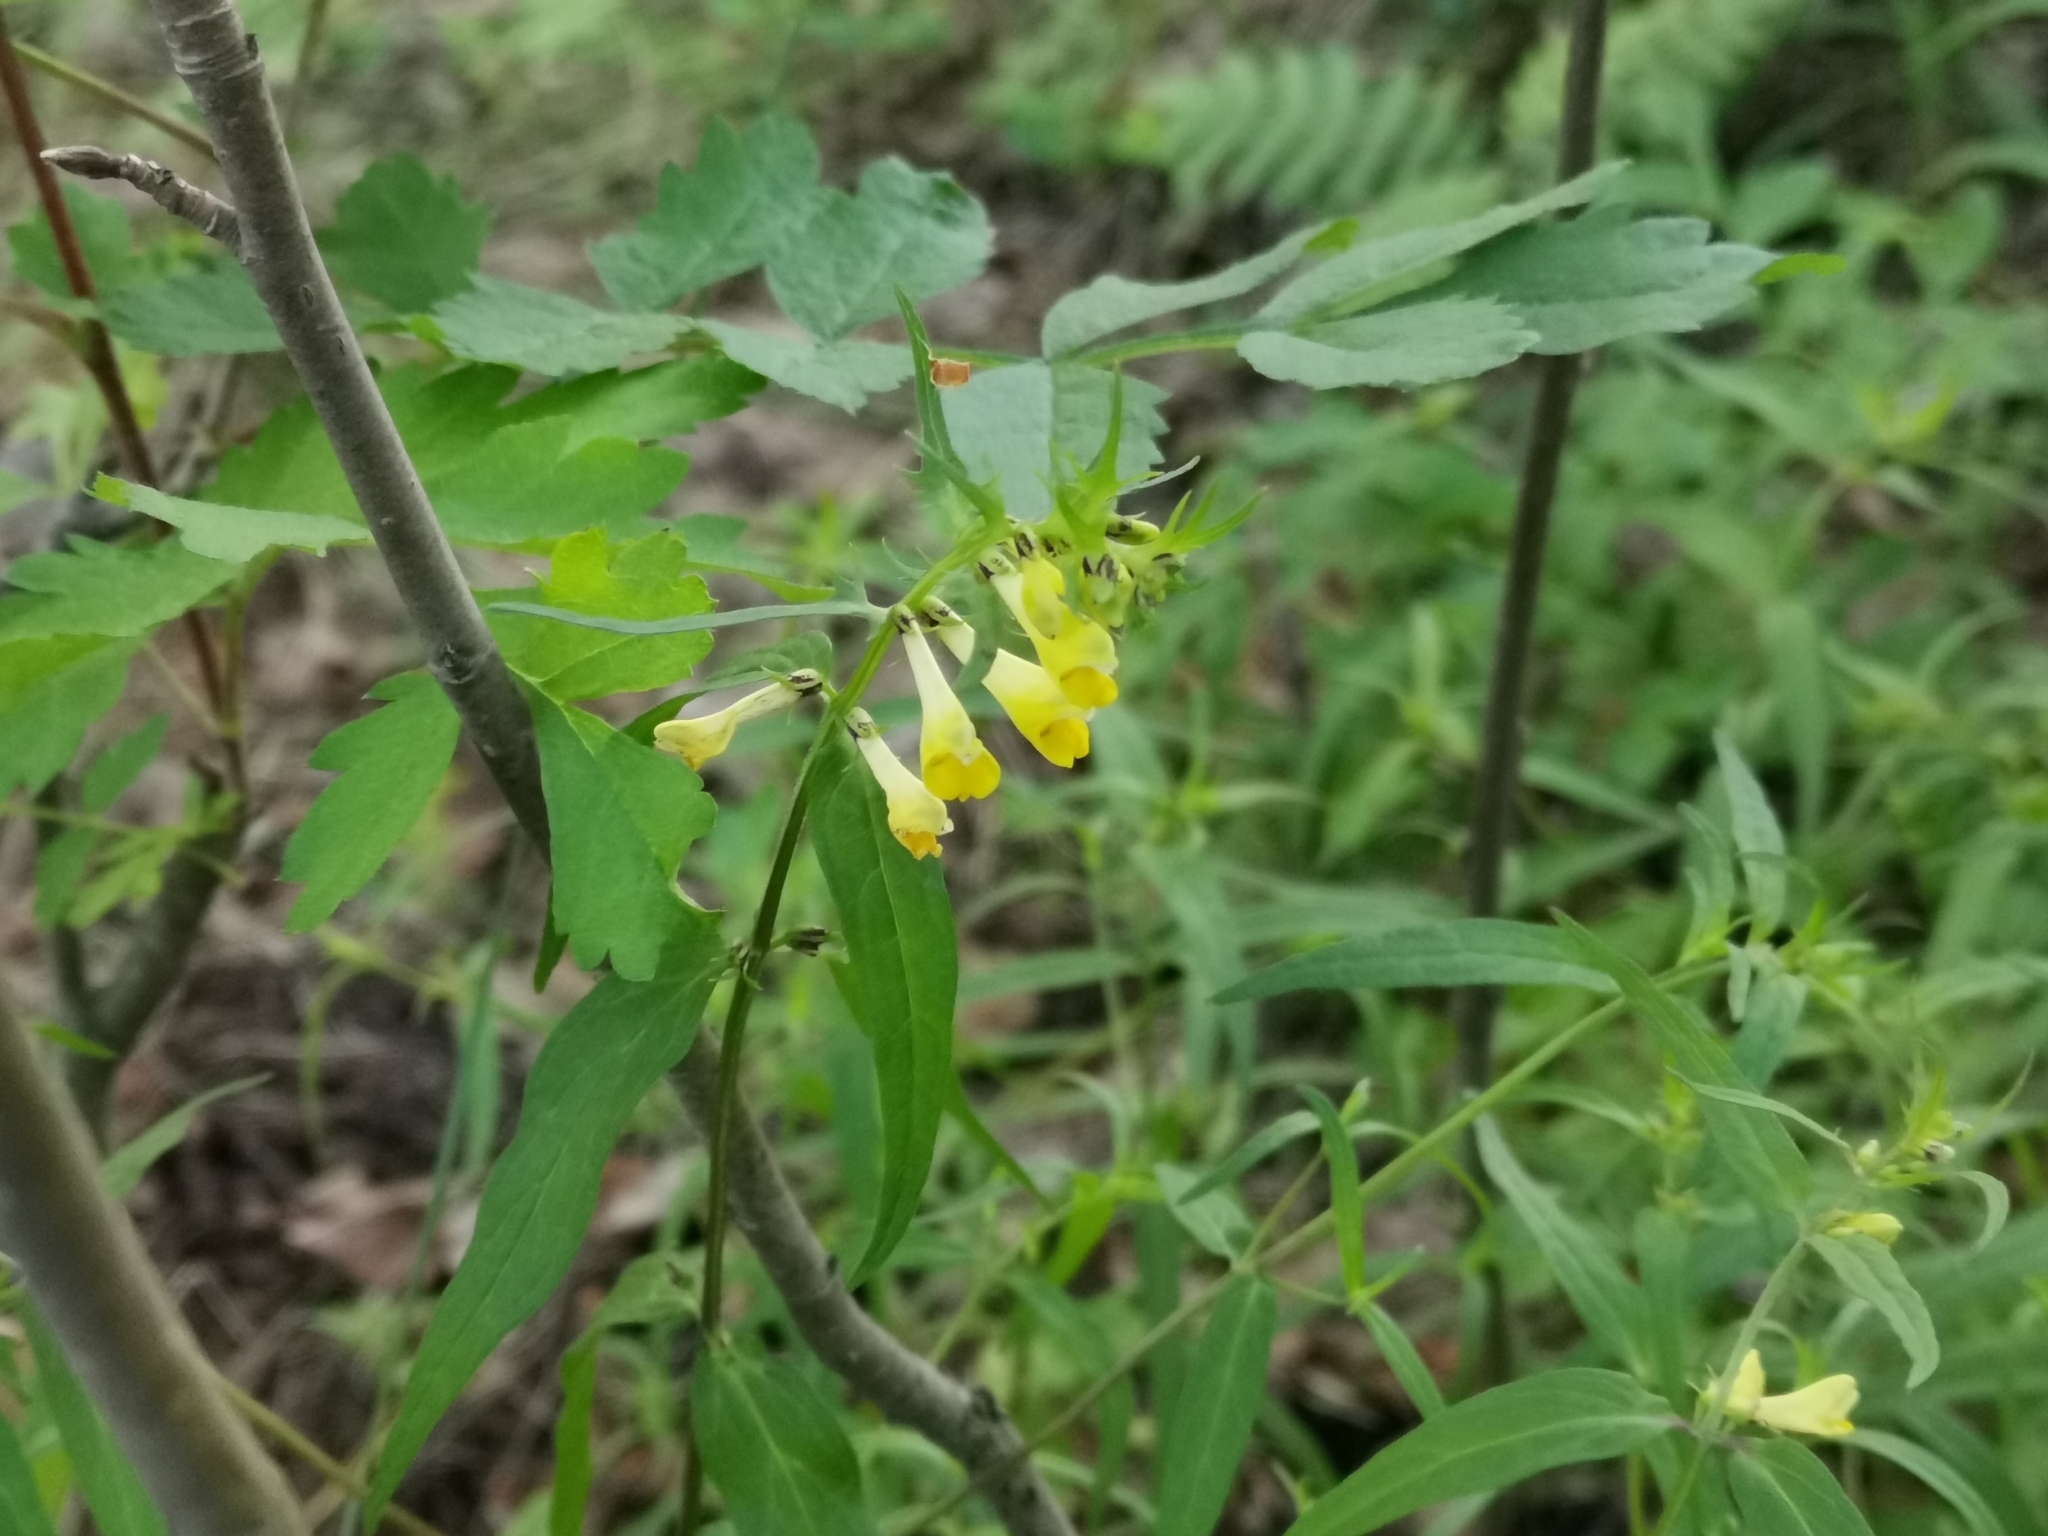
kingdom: Plantae
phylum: Tracheophyta
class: Magnoliopsida
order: Lamiales
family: Orobanchaceae
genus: Melampyrum
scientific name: Melampyrum pratense
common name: Common cow-wheat
